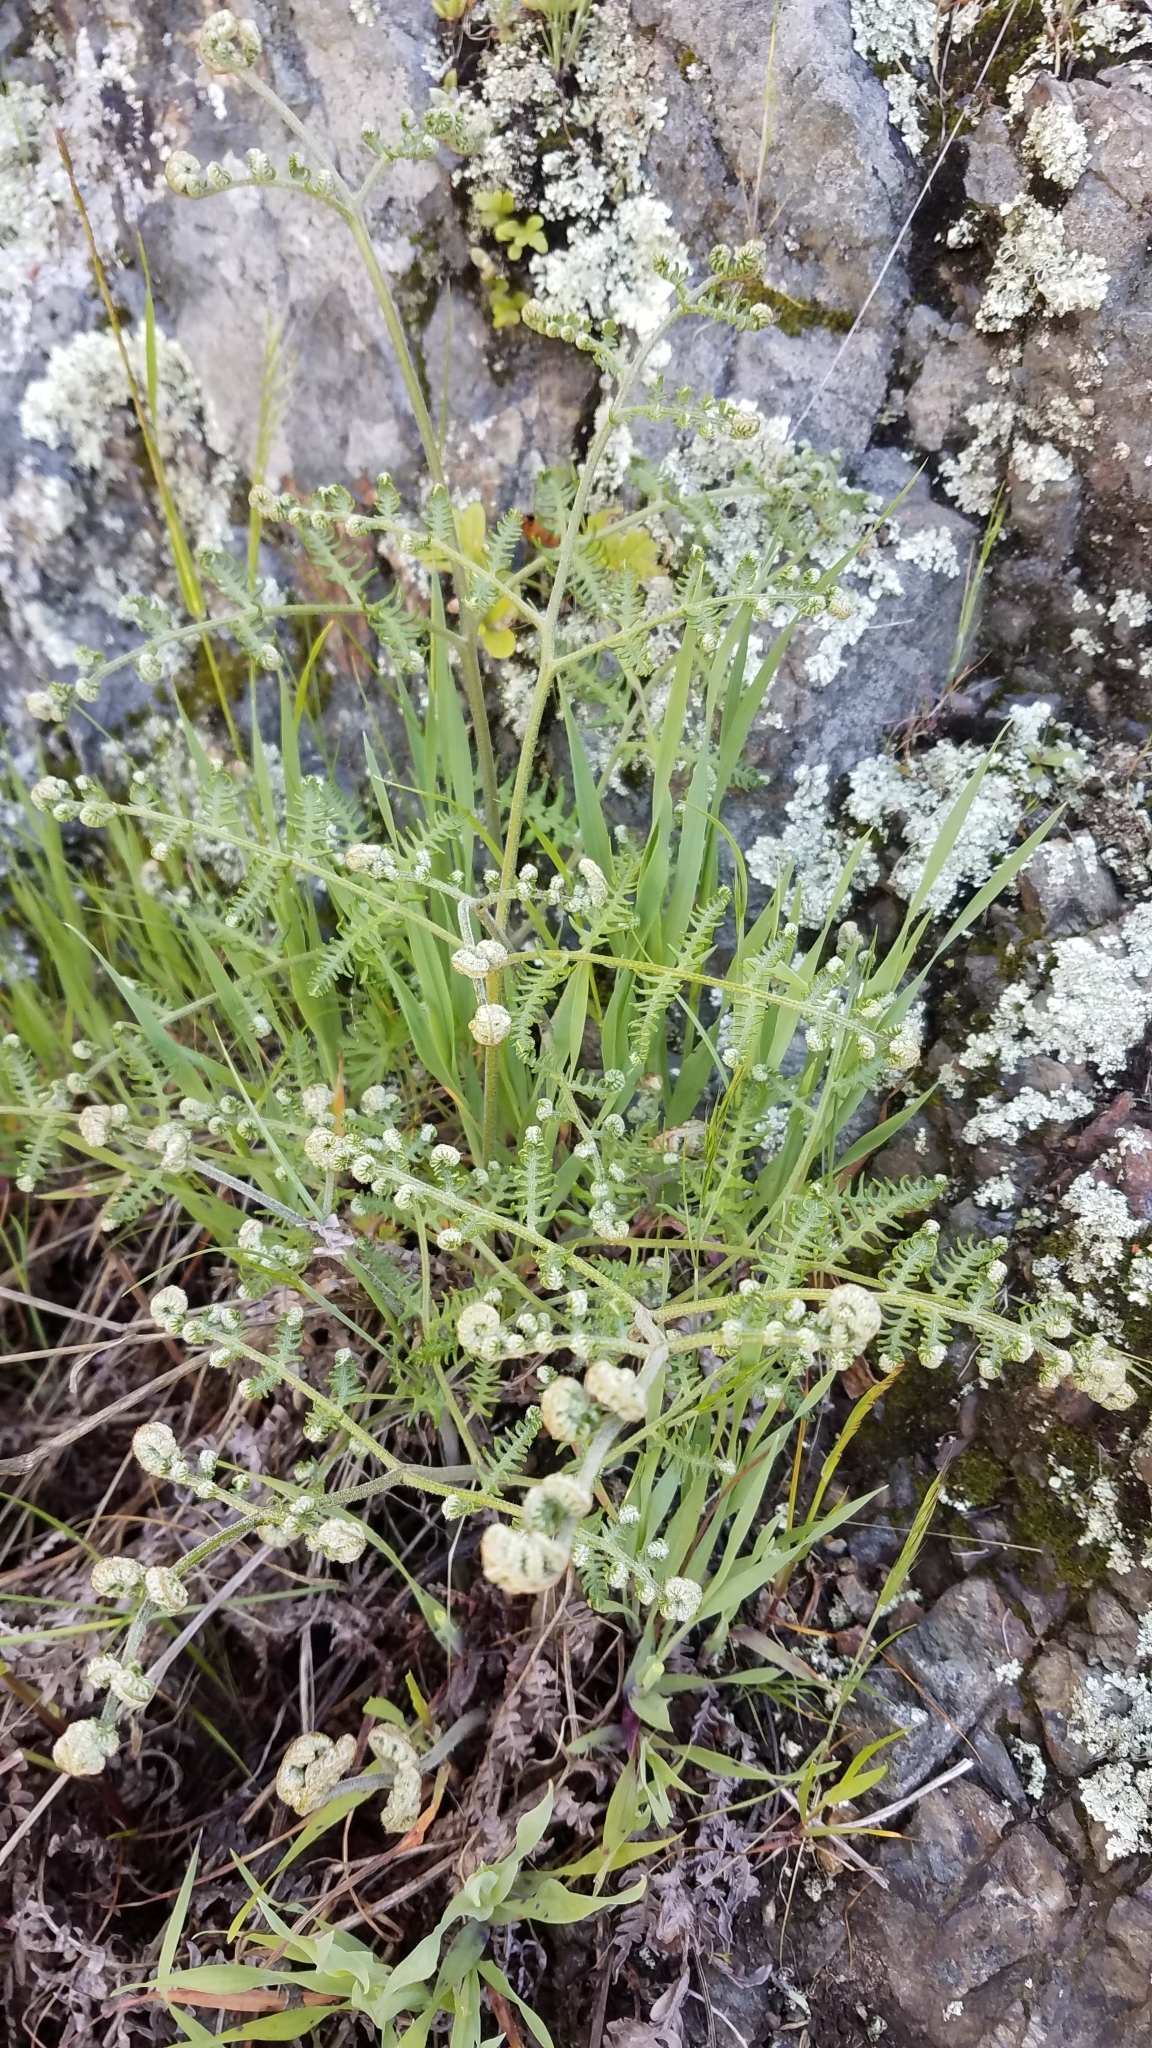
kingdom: Plantae
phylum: Tracheophyta
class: Polypodiopsida
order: Polypodiales
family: Dennstaedtiaceae
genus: Pteridium
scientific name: Pteridium aquilinum
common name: Bracken
